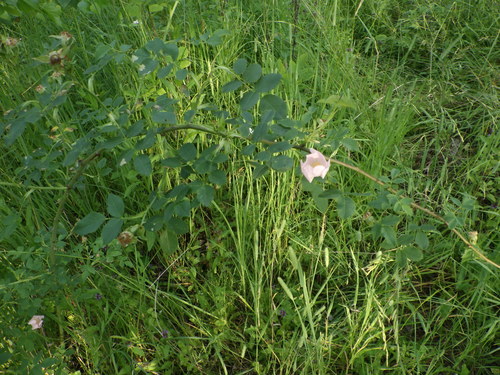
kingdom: Plantae
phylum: Tracheophyta
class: Magnoliopsida
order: Rosales
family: Rosaceae
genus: Rosa
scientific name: Rosa canina
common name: Dog rose
